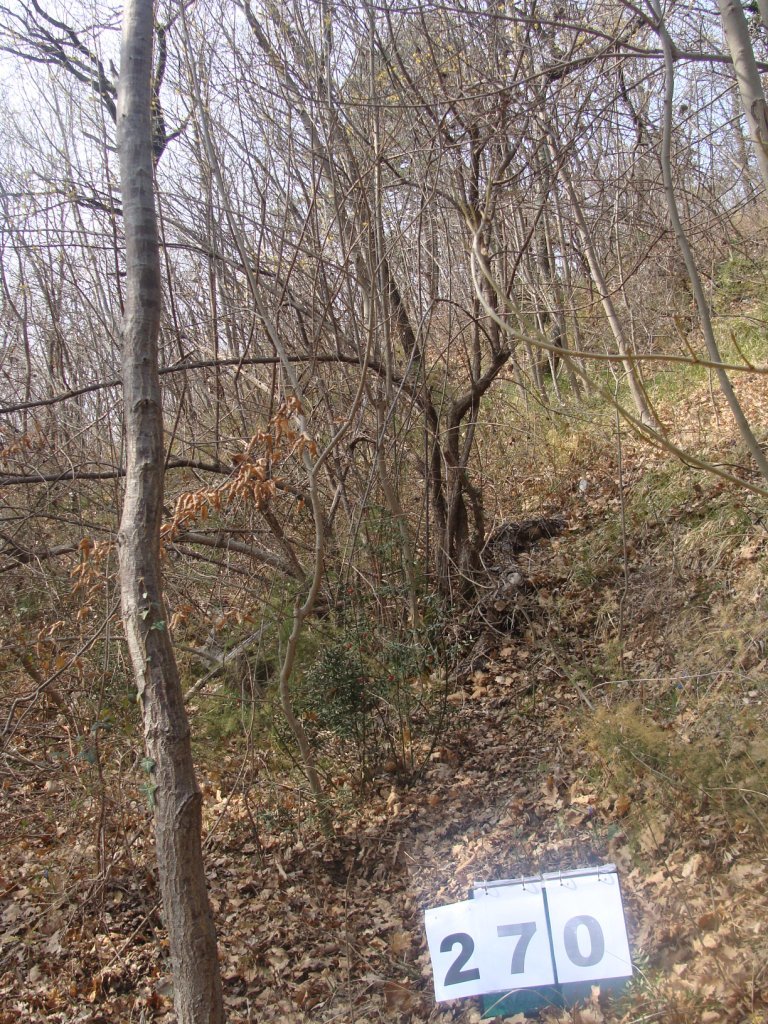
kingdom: Plantae
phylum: Tracheophyta
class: Magnoliopsida
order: Cornales
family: Cornaceae
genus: Cornus
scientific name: Cornus mas
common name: Cornelian-cherry
